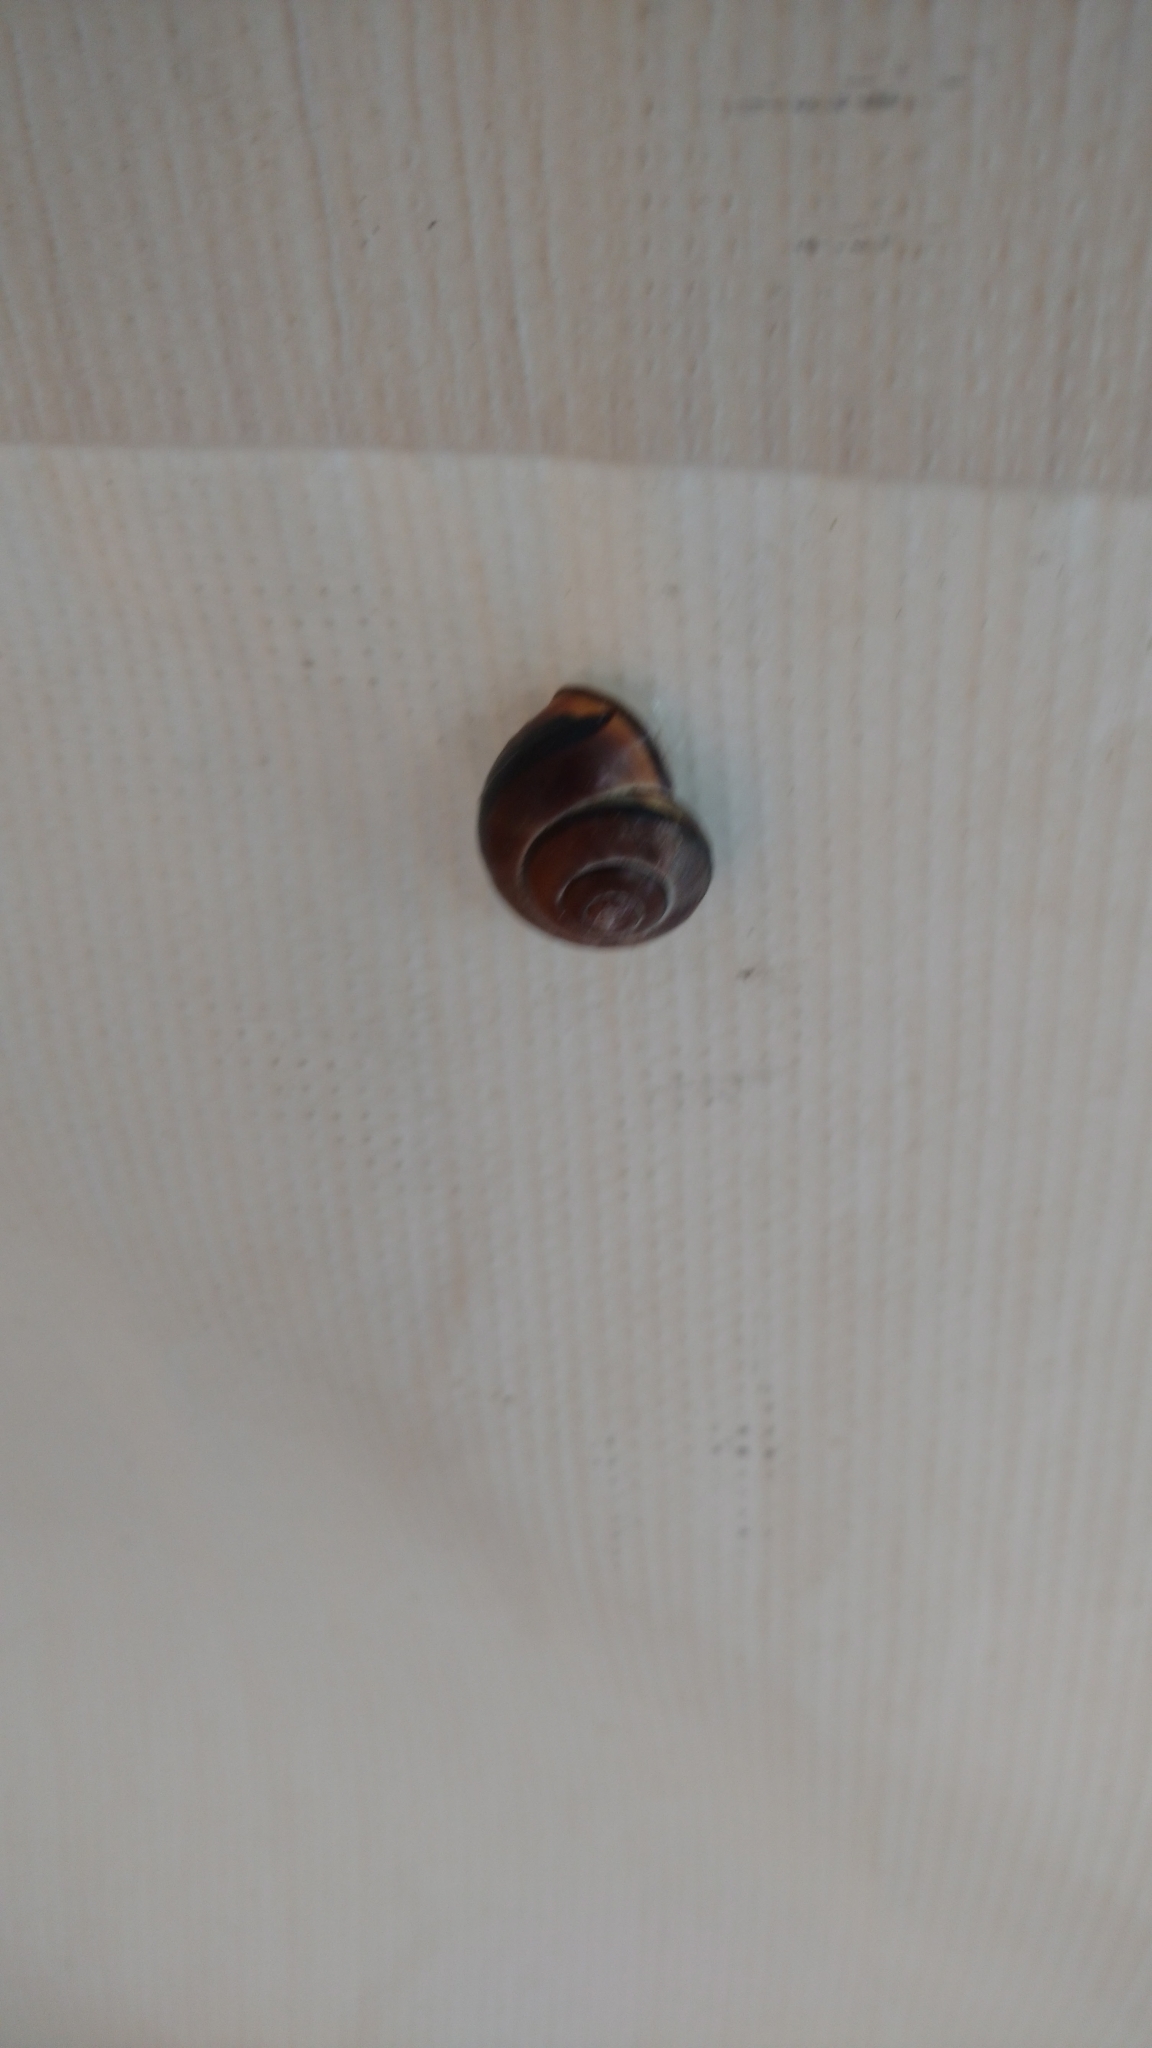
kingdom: Animalia
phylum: Mollusca
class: Gastropoda
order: Stylommatophora
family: Helicidae
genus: Cepaea
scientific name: Cepaea nemoralis
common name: Grovesnail
